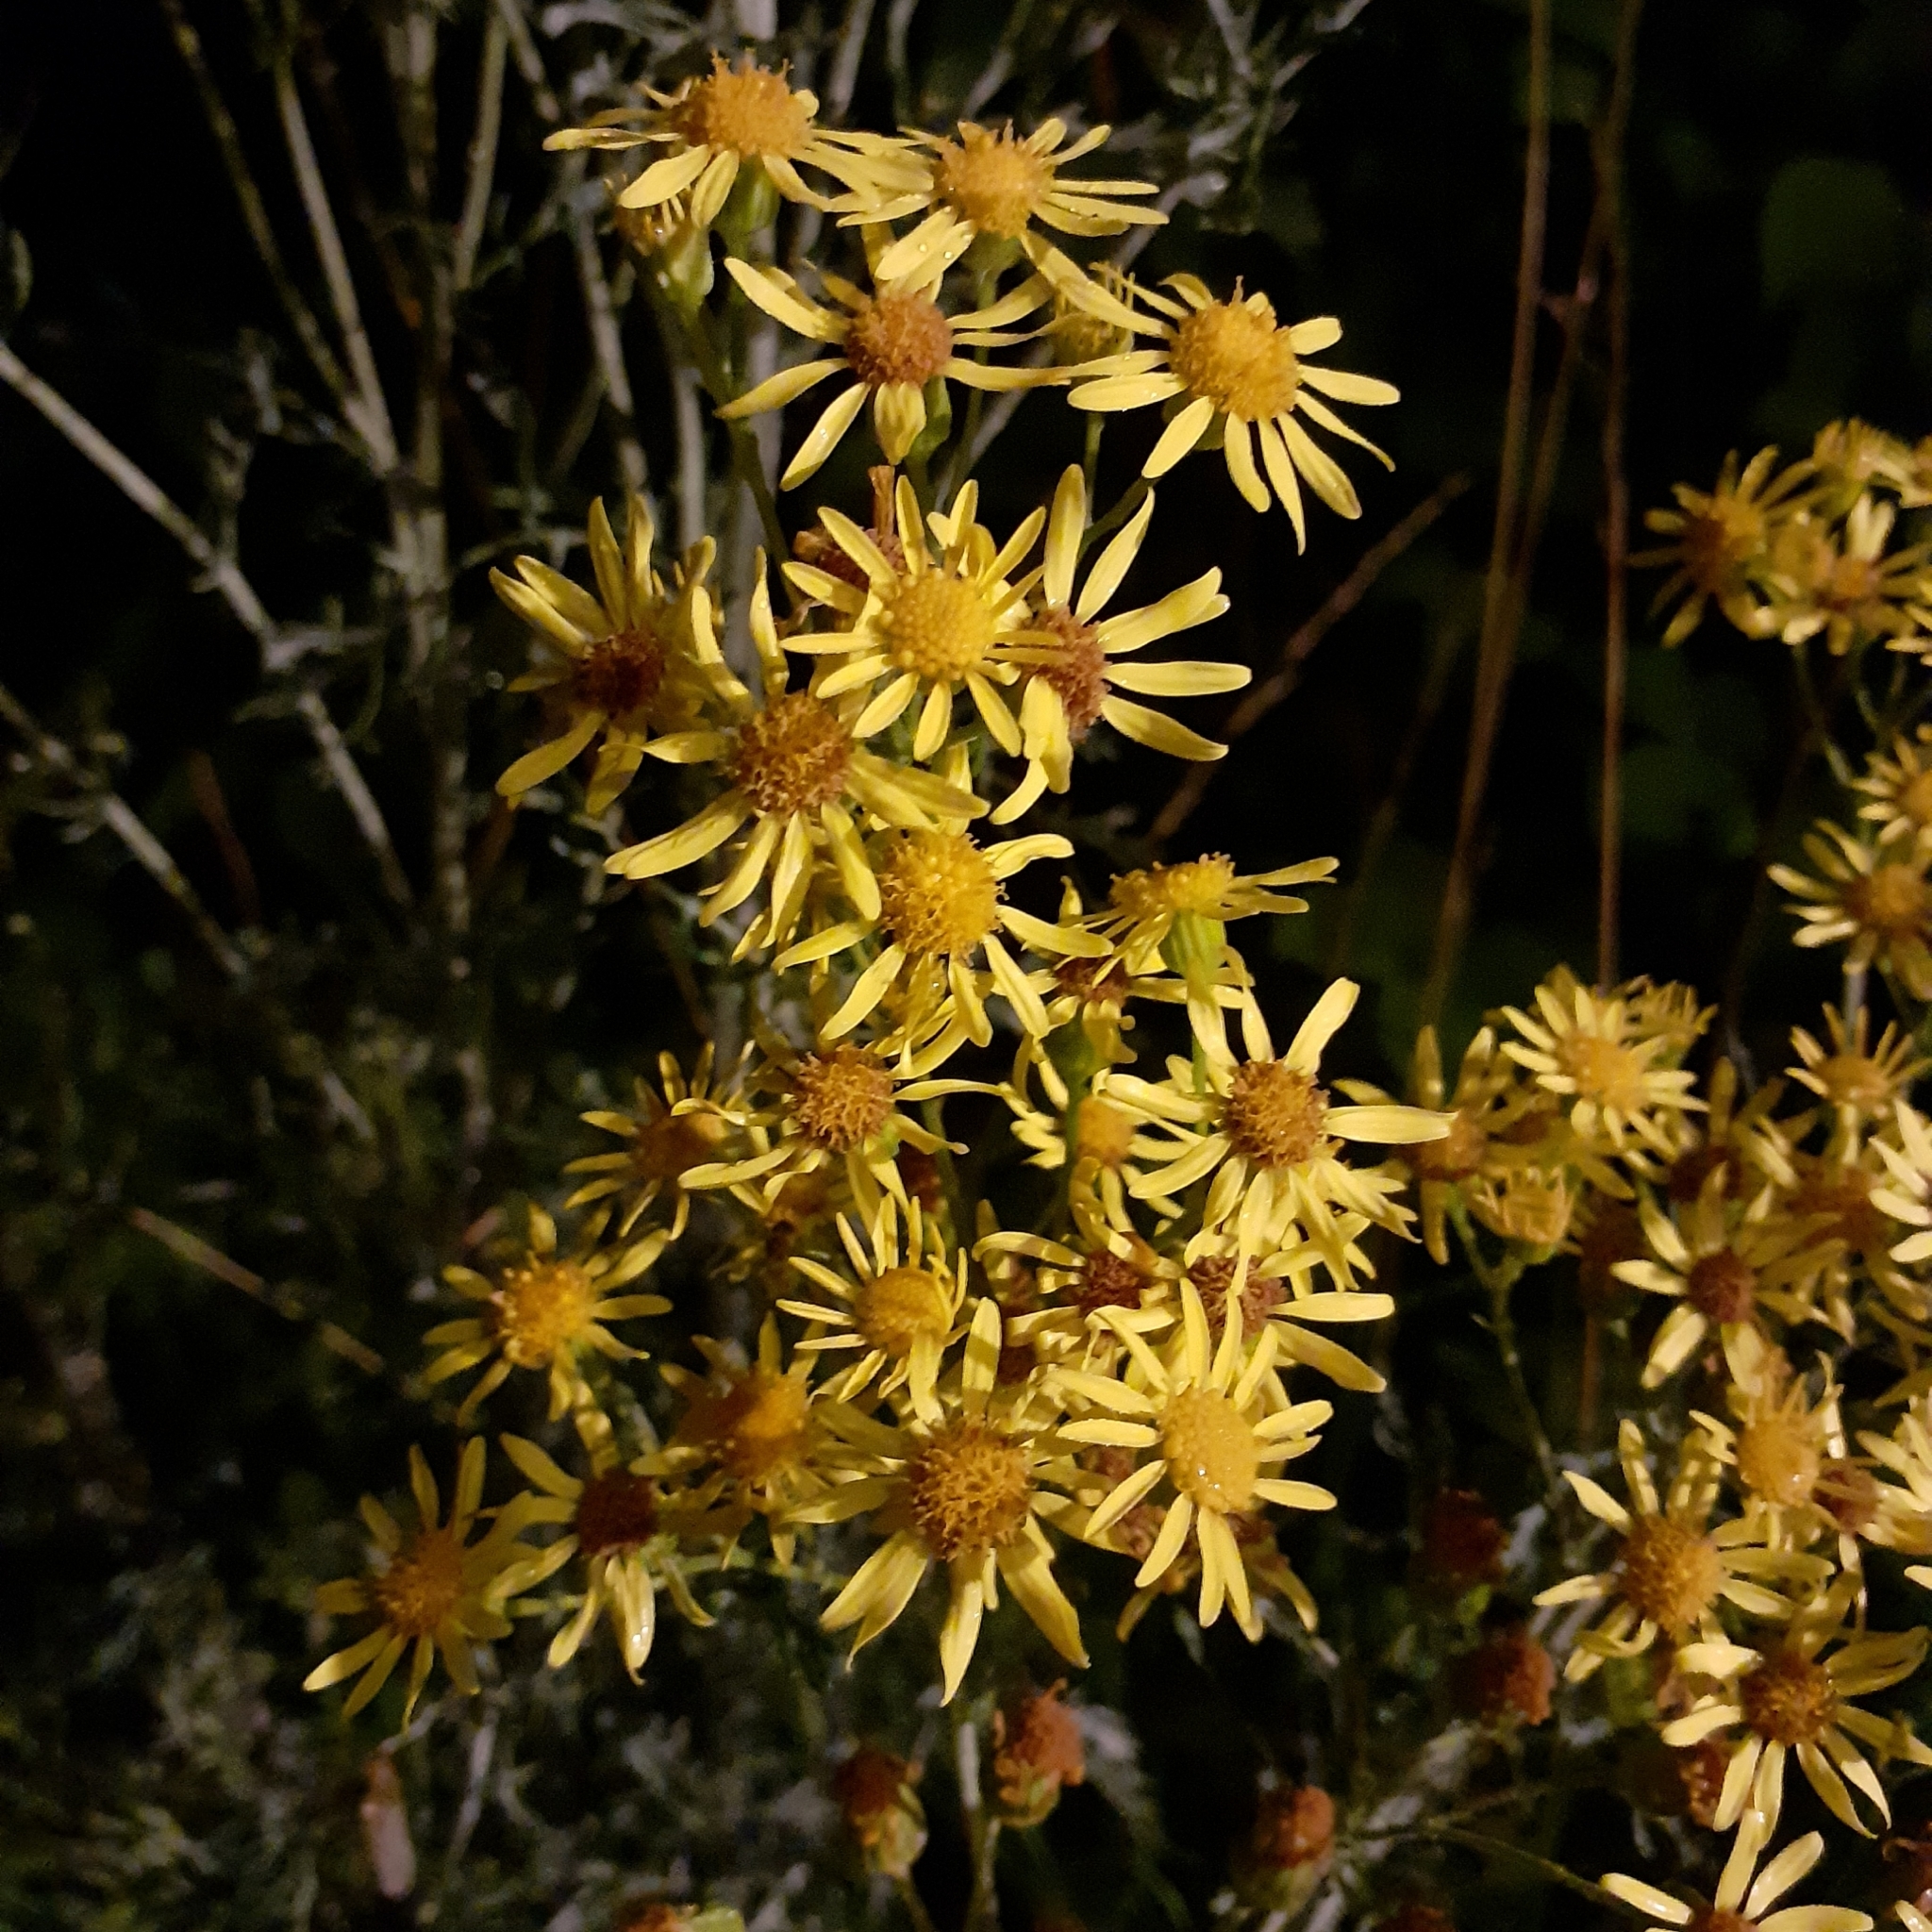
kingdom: Plantae
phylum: Tracheophyta
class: Magnoliopsida
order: Asterales
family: Asteraceae
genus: Jacobaea
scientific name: Jacobaea vulgaris
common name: Stinking willie
